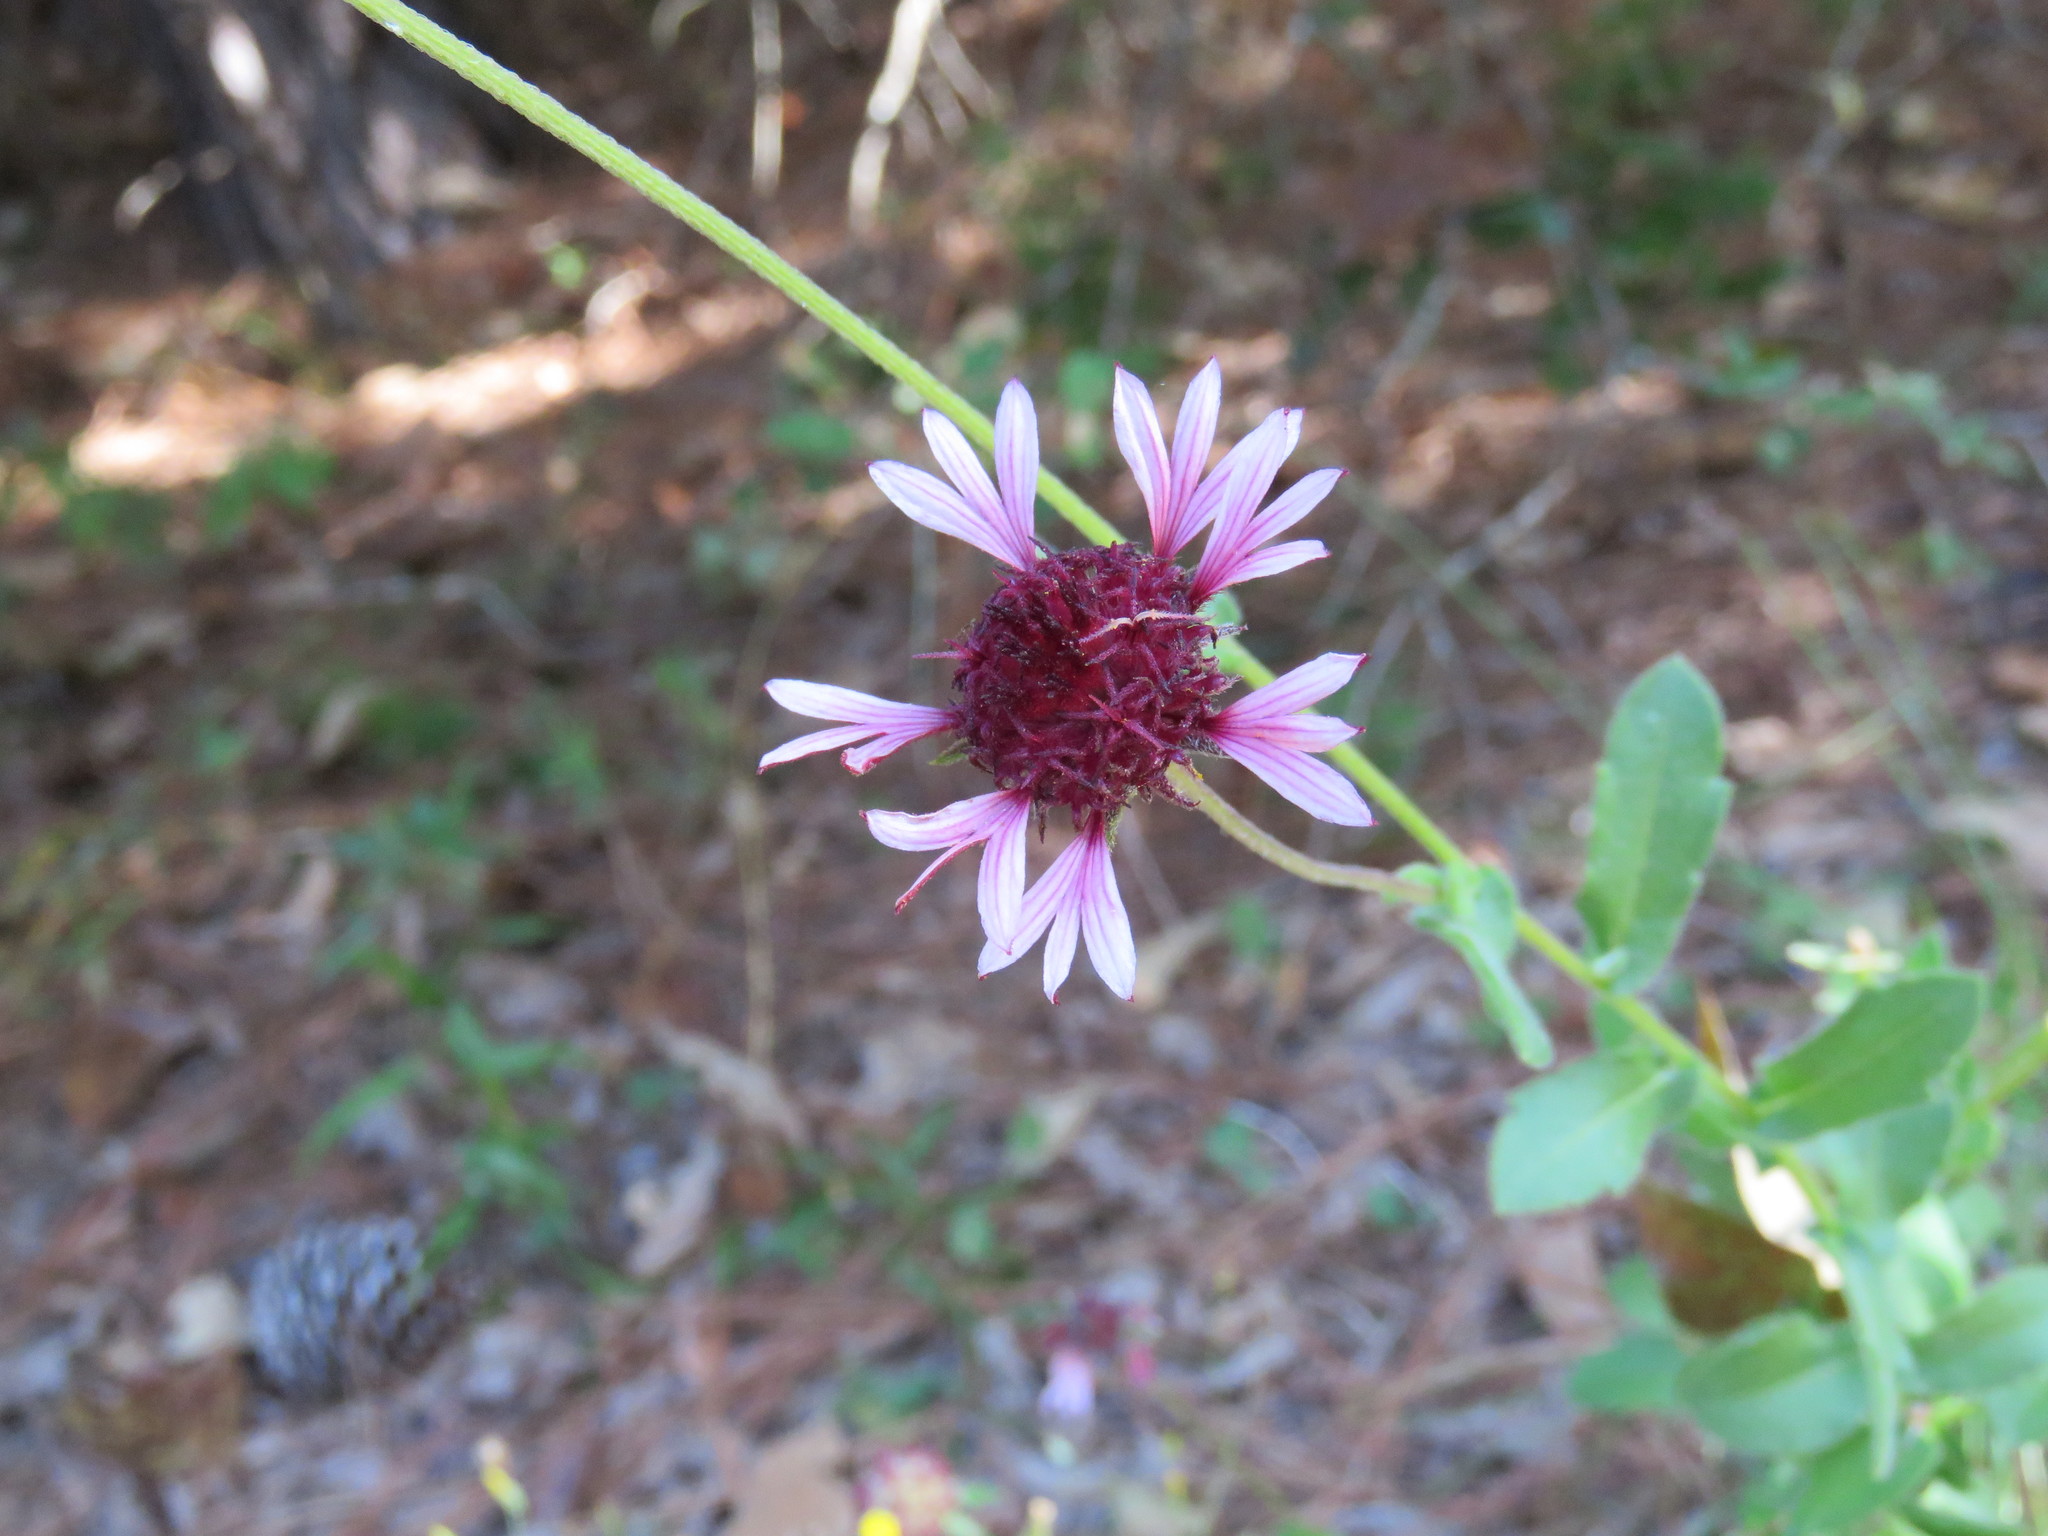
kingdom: Plantae
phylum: Tracheophyta
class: Magnoliopsida
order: Asterales
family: Asteraceae
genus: Gaillardia
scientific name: Gaillardia aestivalis
